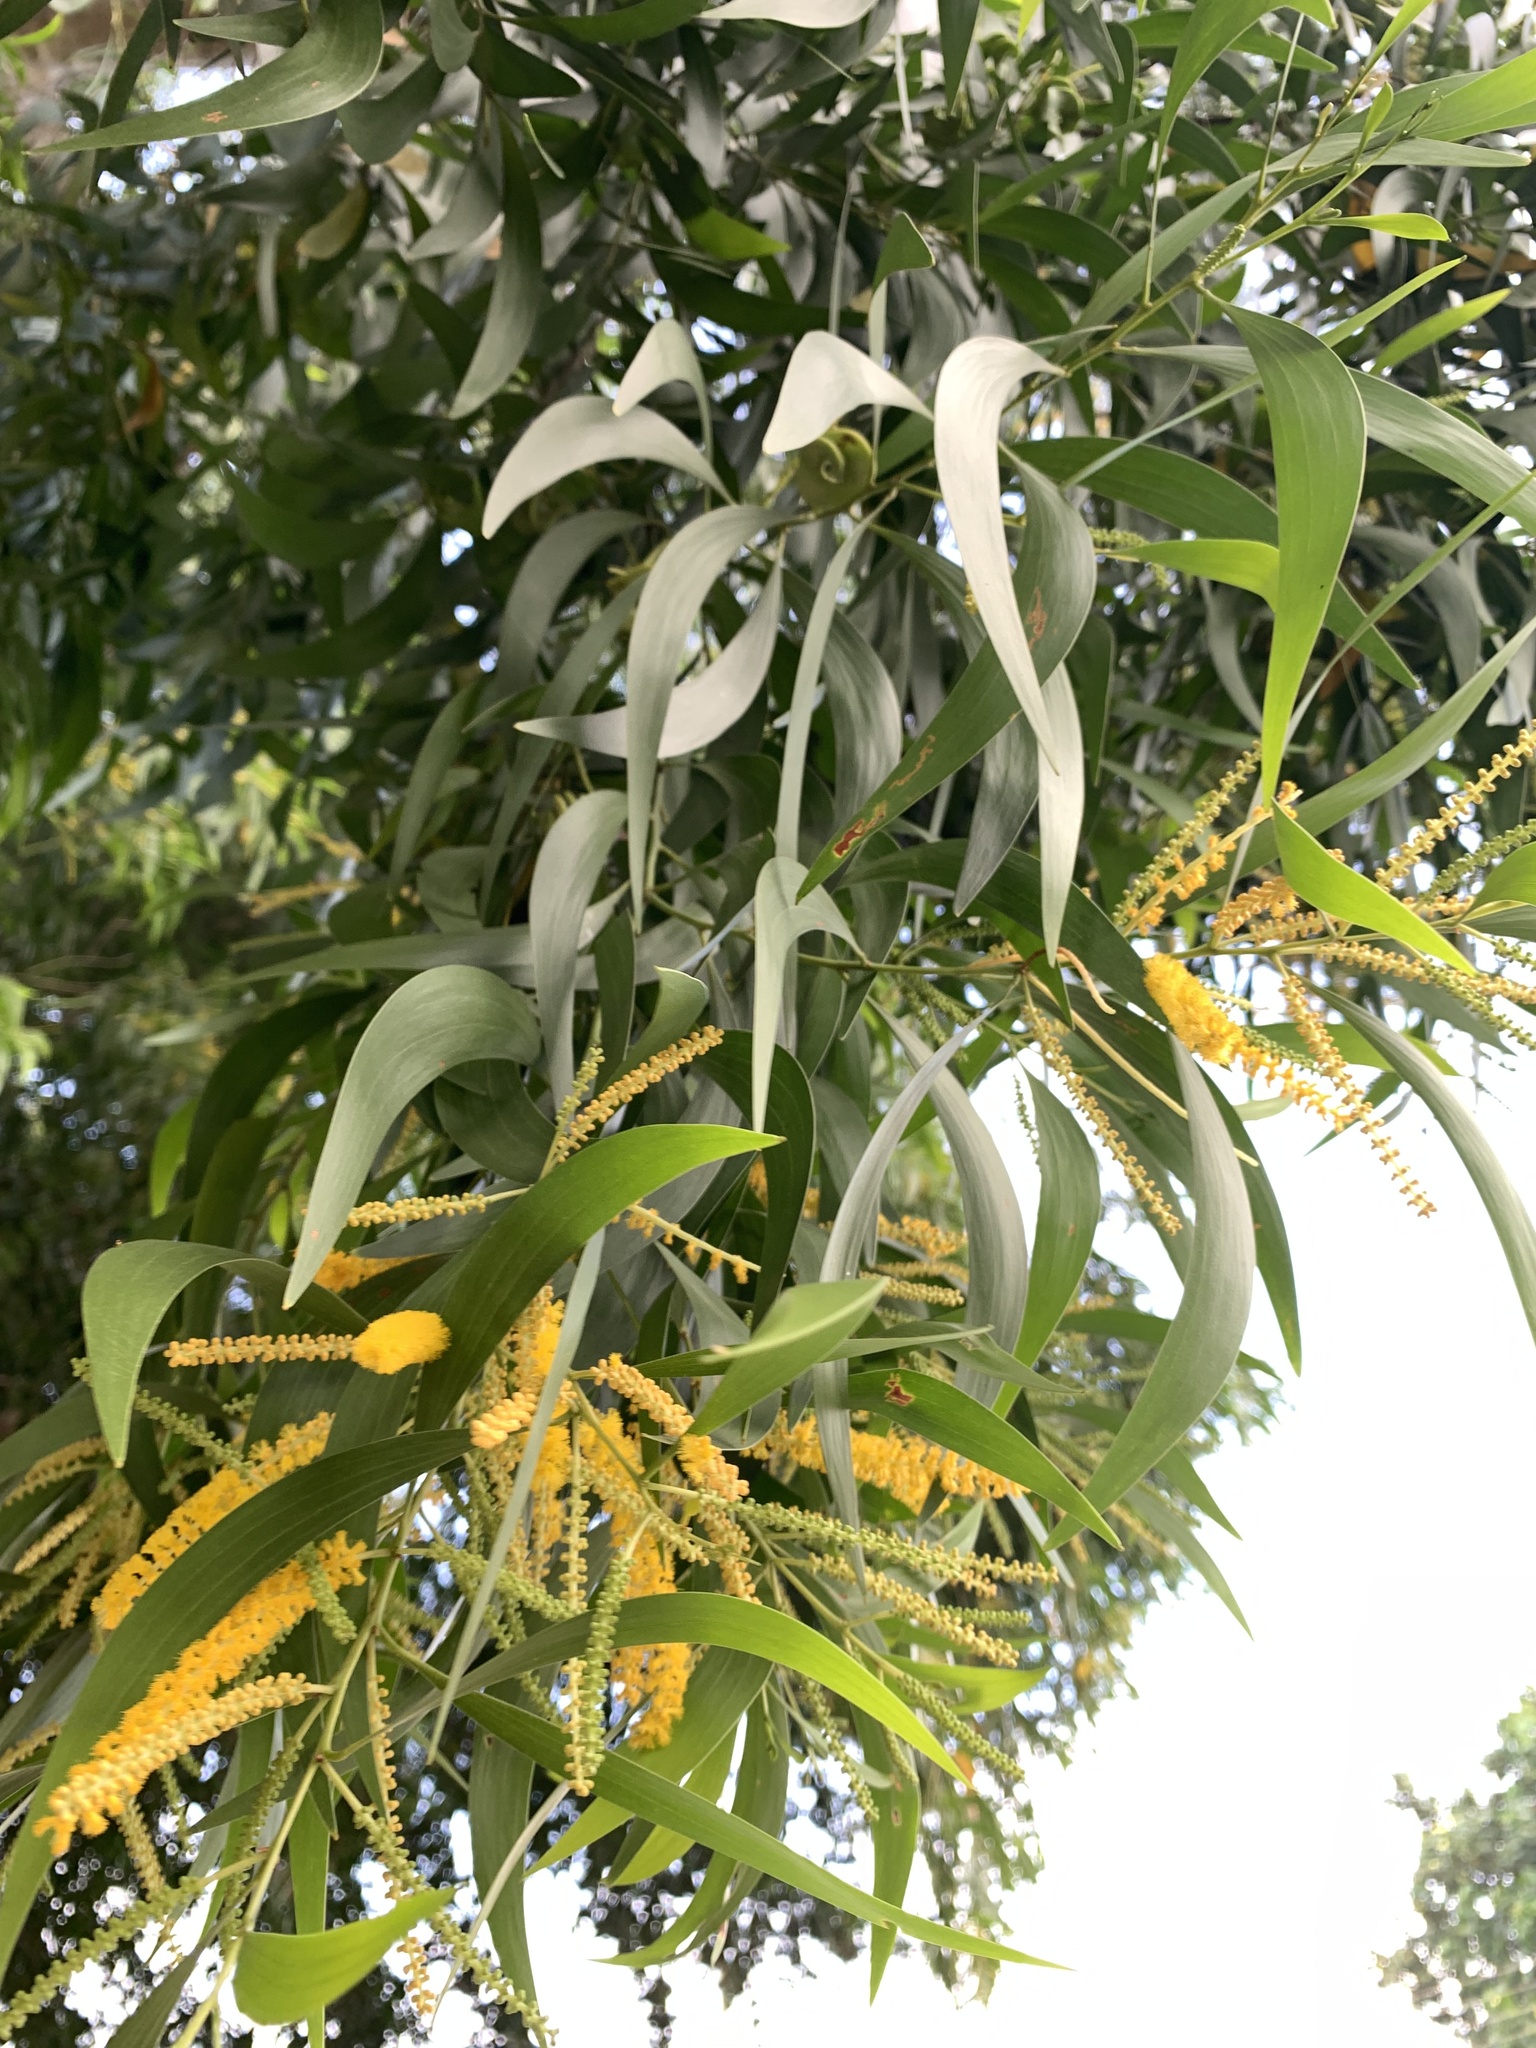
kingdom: Plantae
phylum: Tracheophyta
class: Magnoliopsida
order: Fabales
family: Fabaceae
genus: Acacia
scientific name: Acacia auriculiformis
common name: Earleaf acacia
